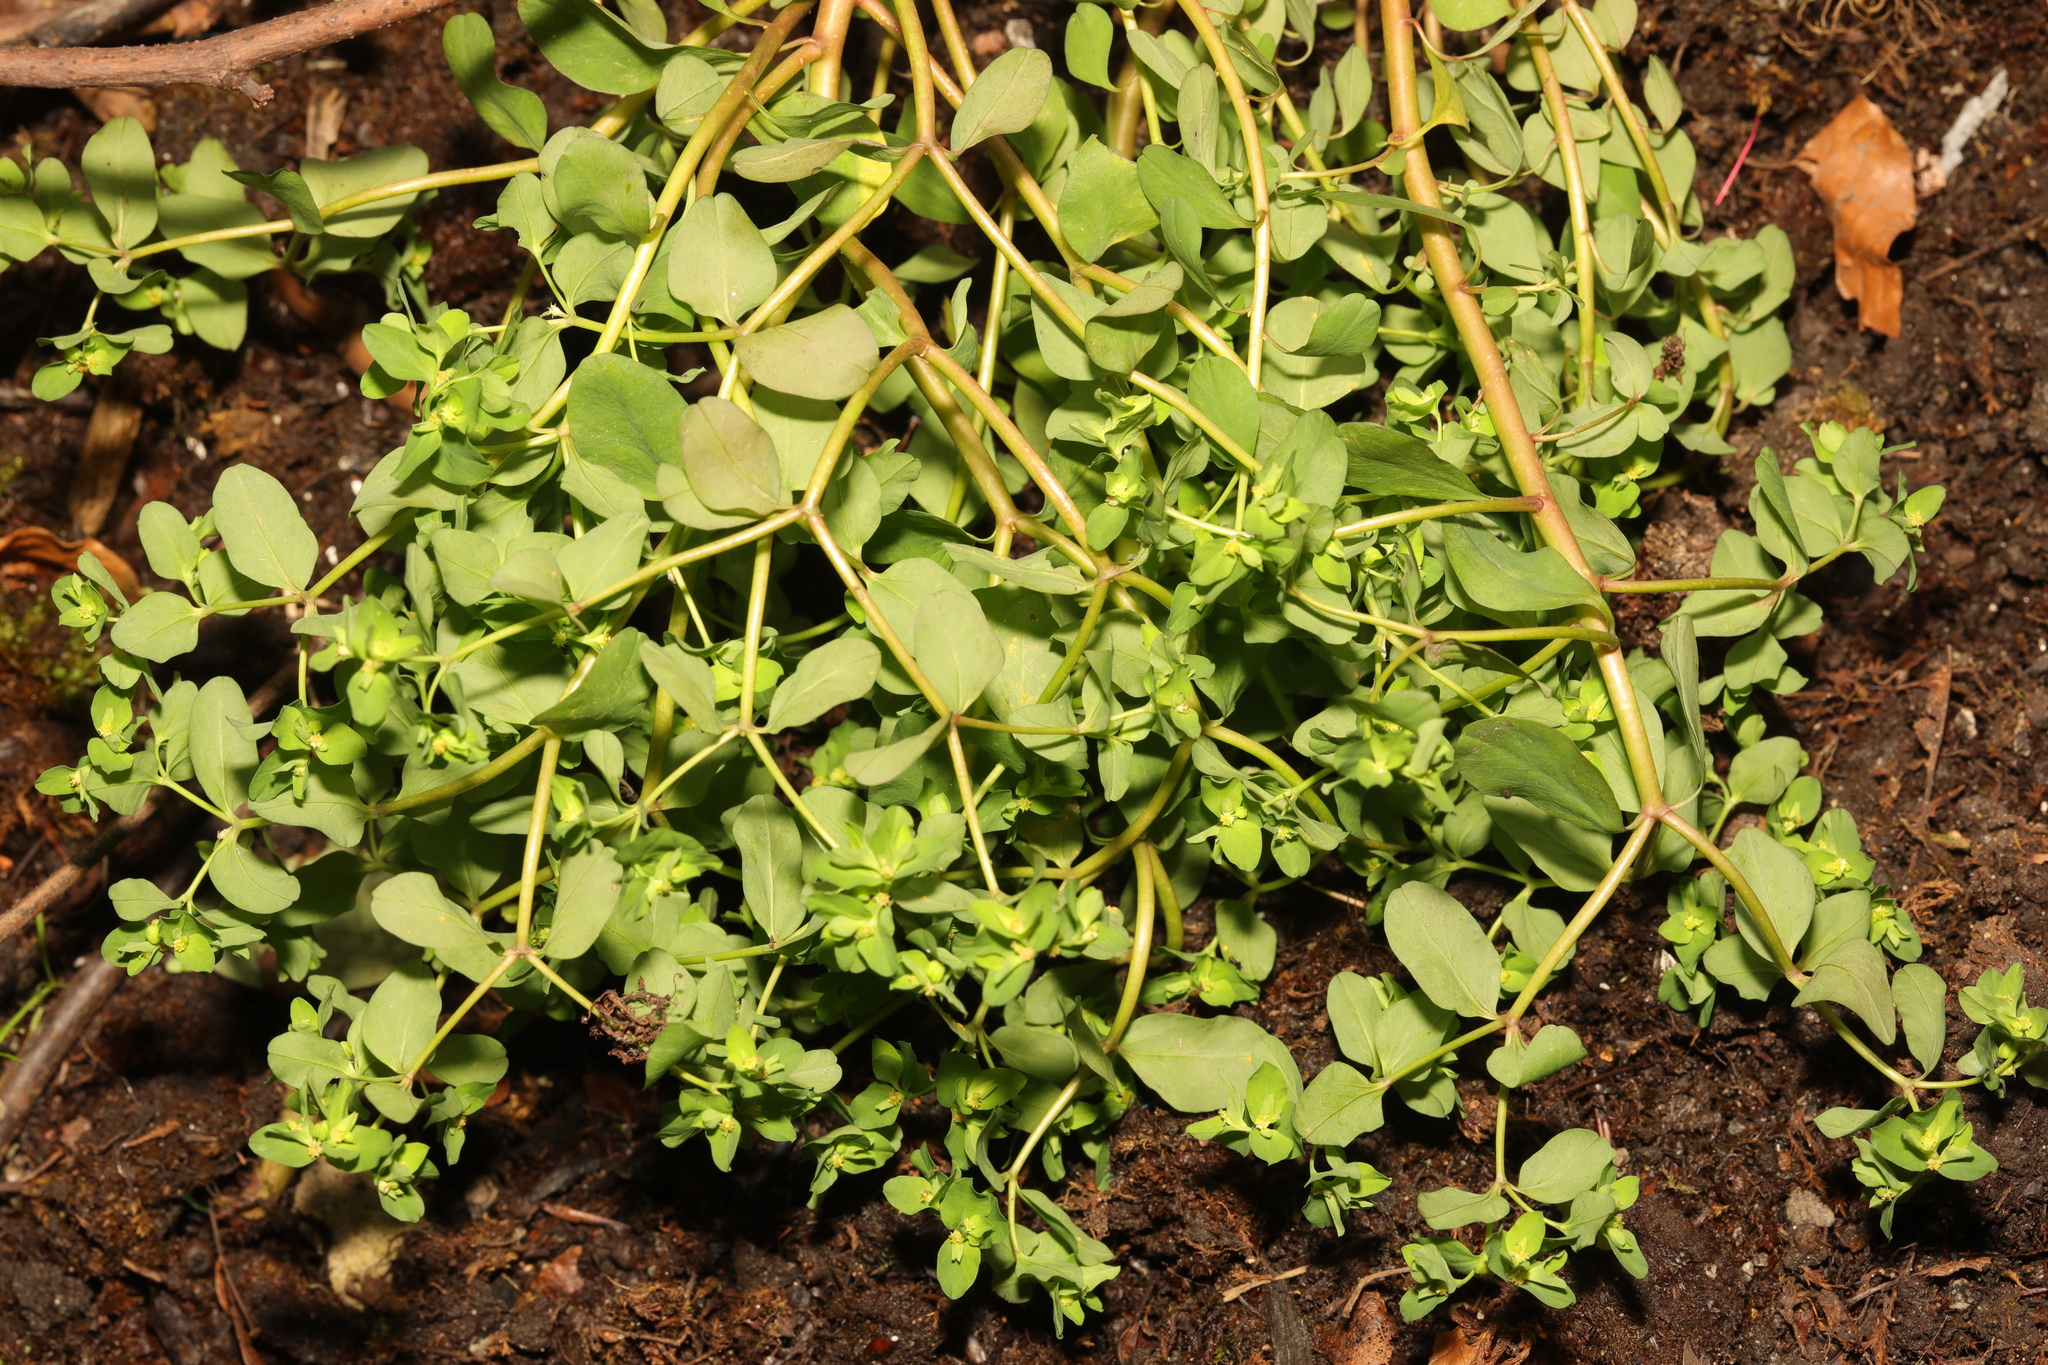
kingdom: Plantae
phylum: Tracheophyta
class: Magnoliopsida
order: Malpighiales
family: Euphorbiaceae
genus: Euphorbia
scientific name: Euphorbia peplus
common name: Petty spurge
